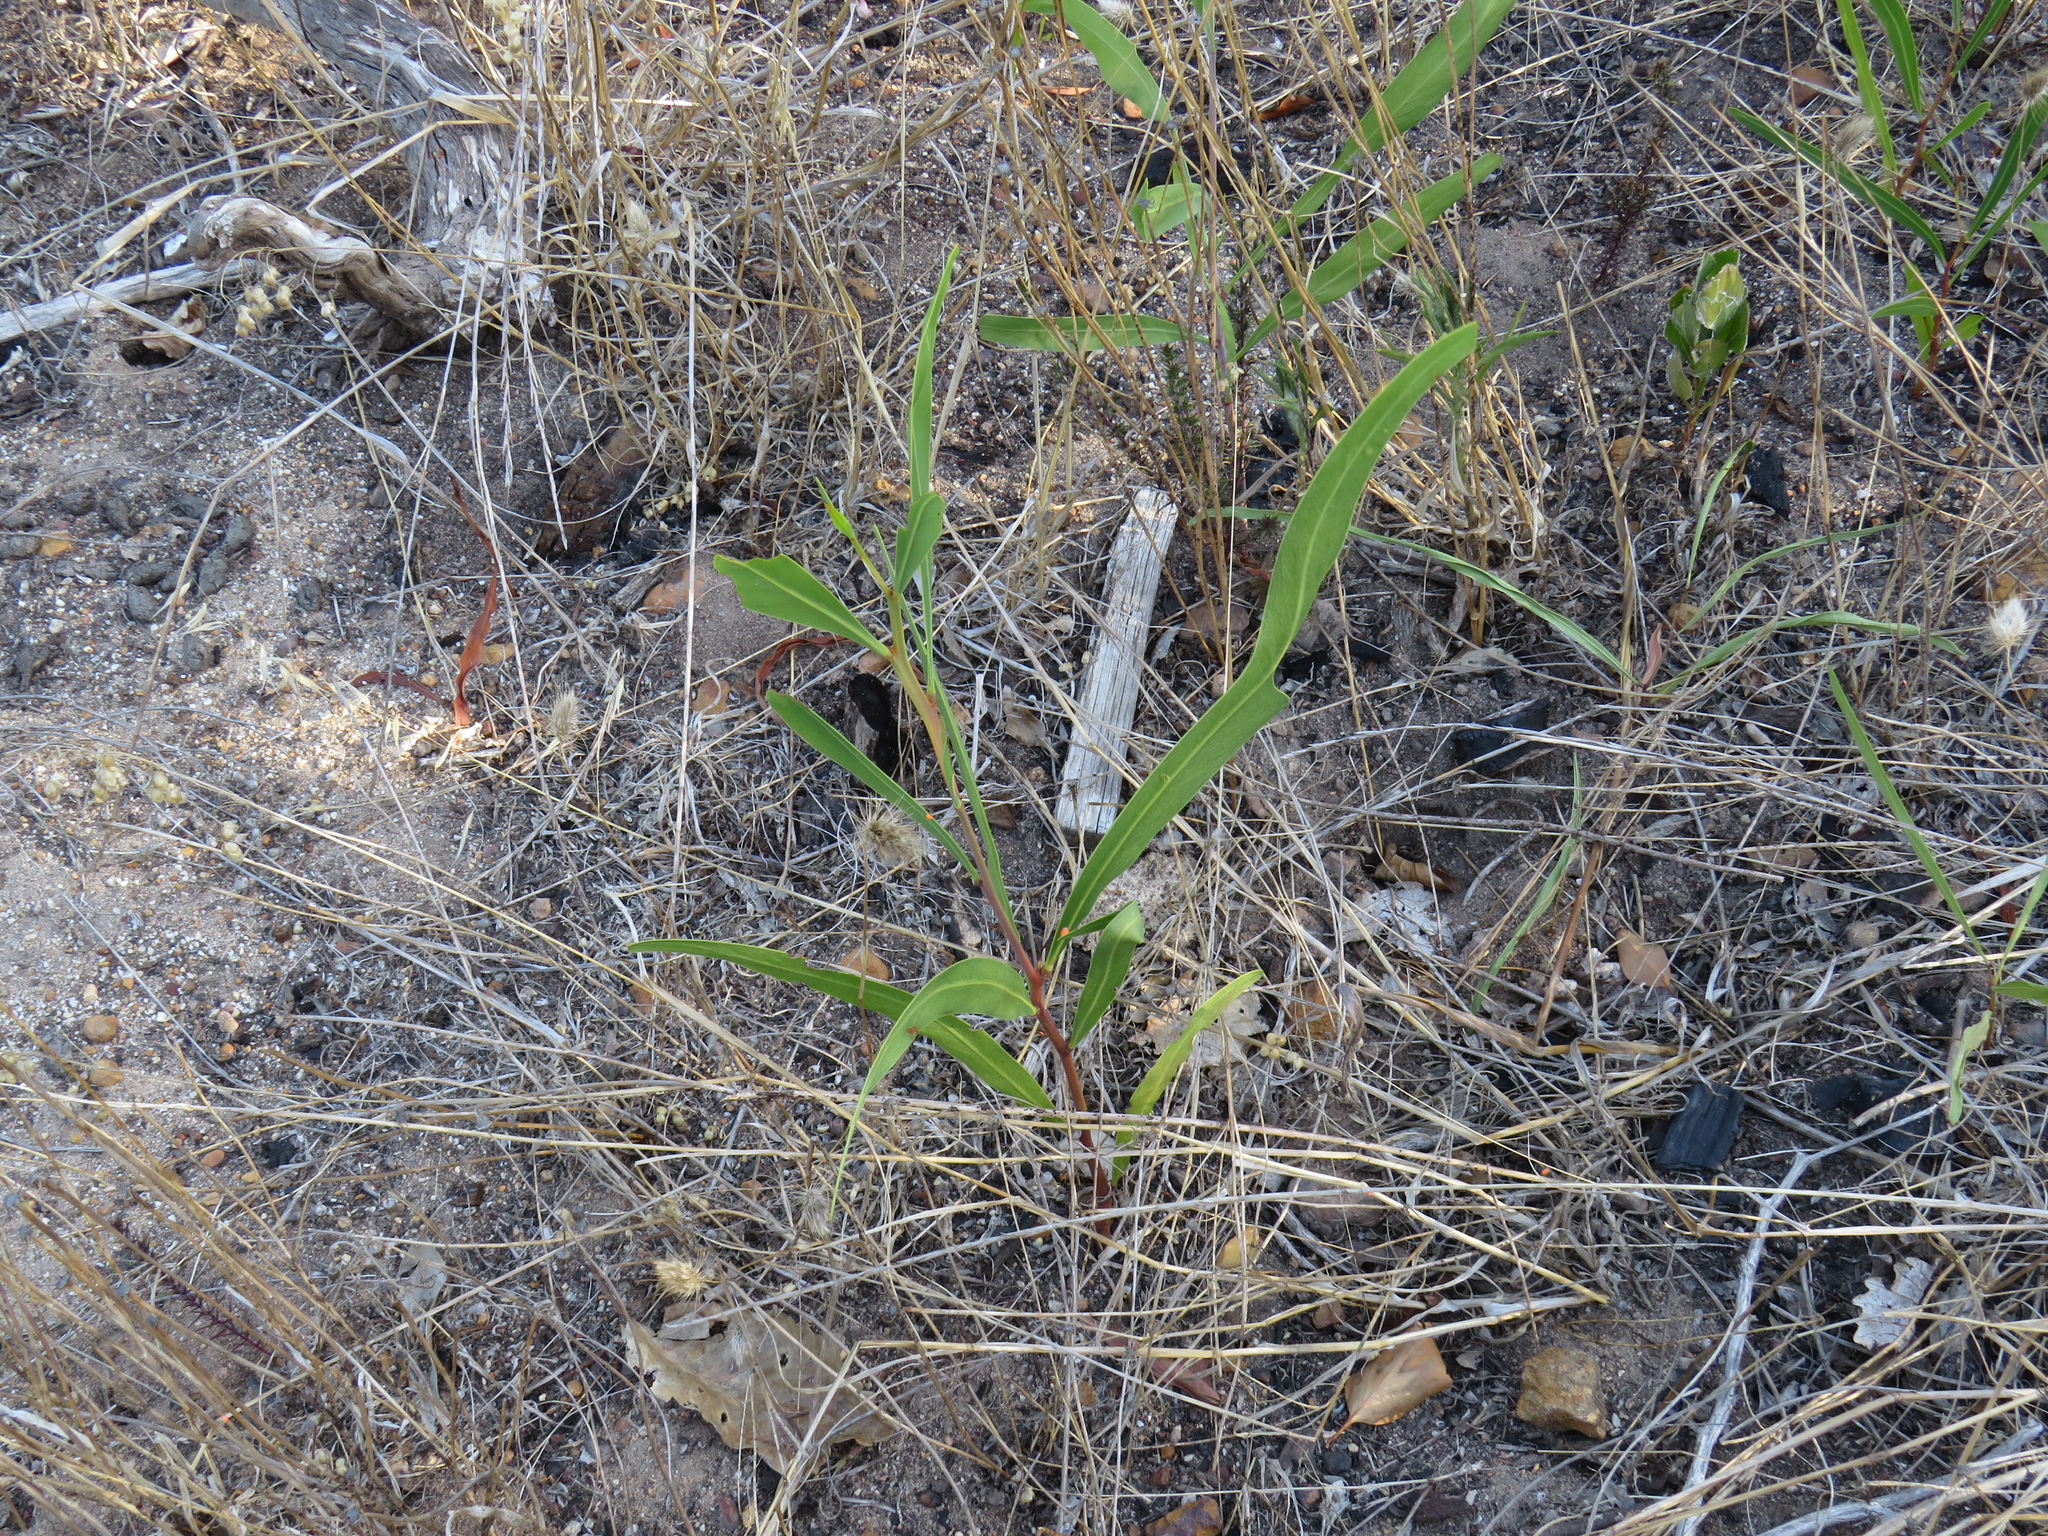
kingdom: Plantae
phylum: Tracheophyta
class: Magnoliopsida
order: Fabales
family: Fabaceae
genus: Acacia
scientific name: Acacia saligna
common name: Orange wattle
